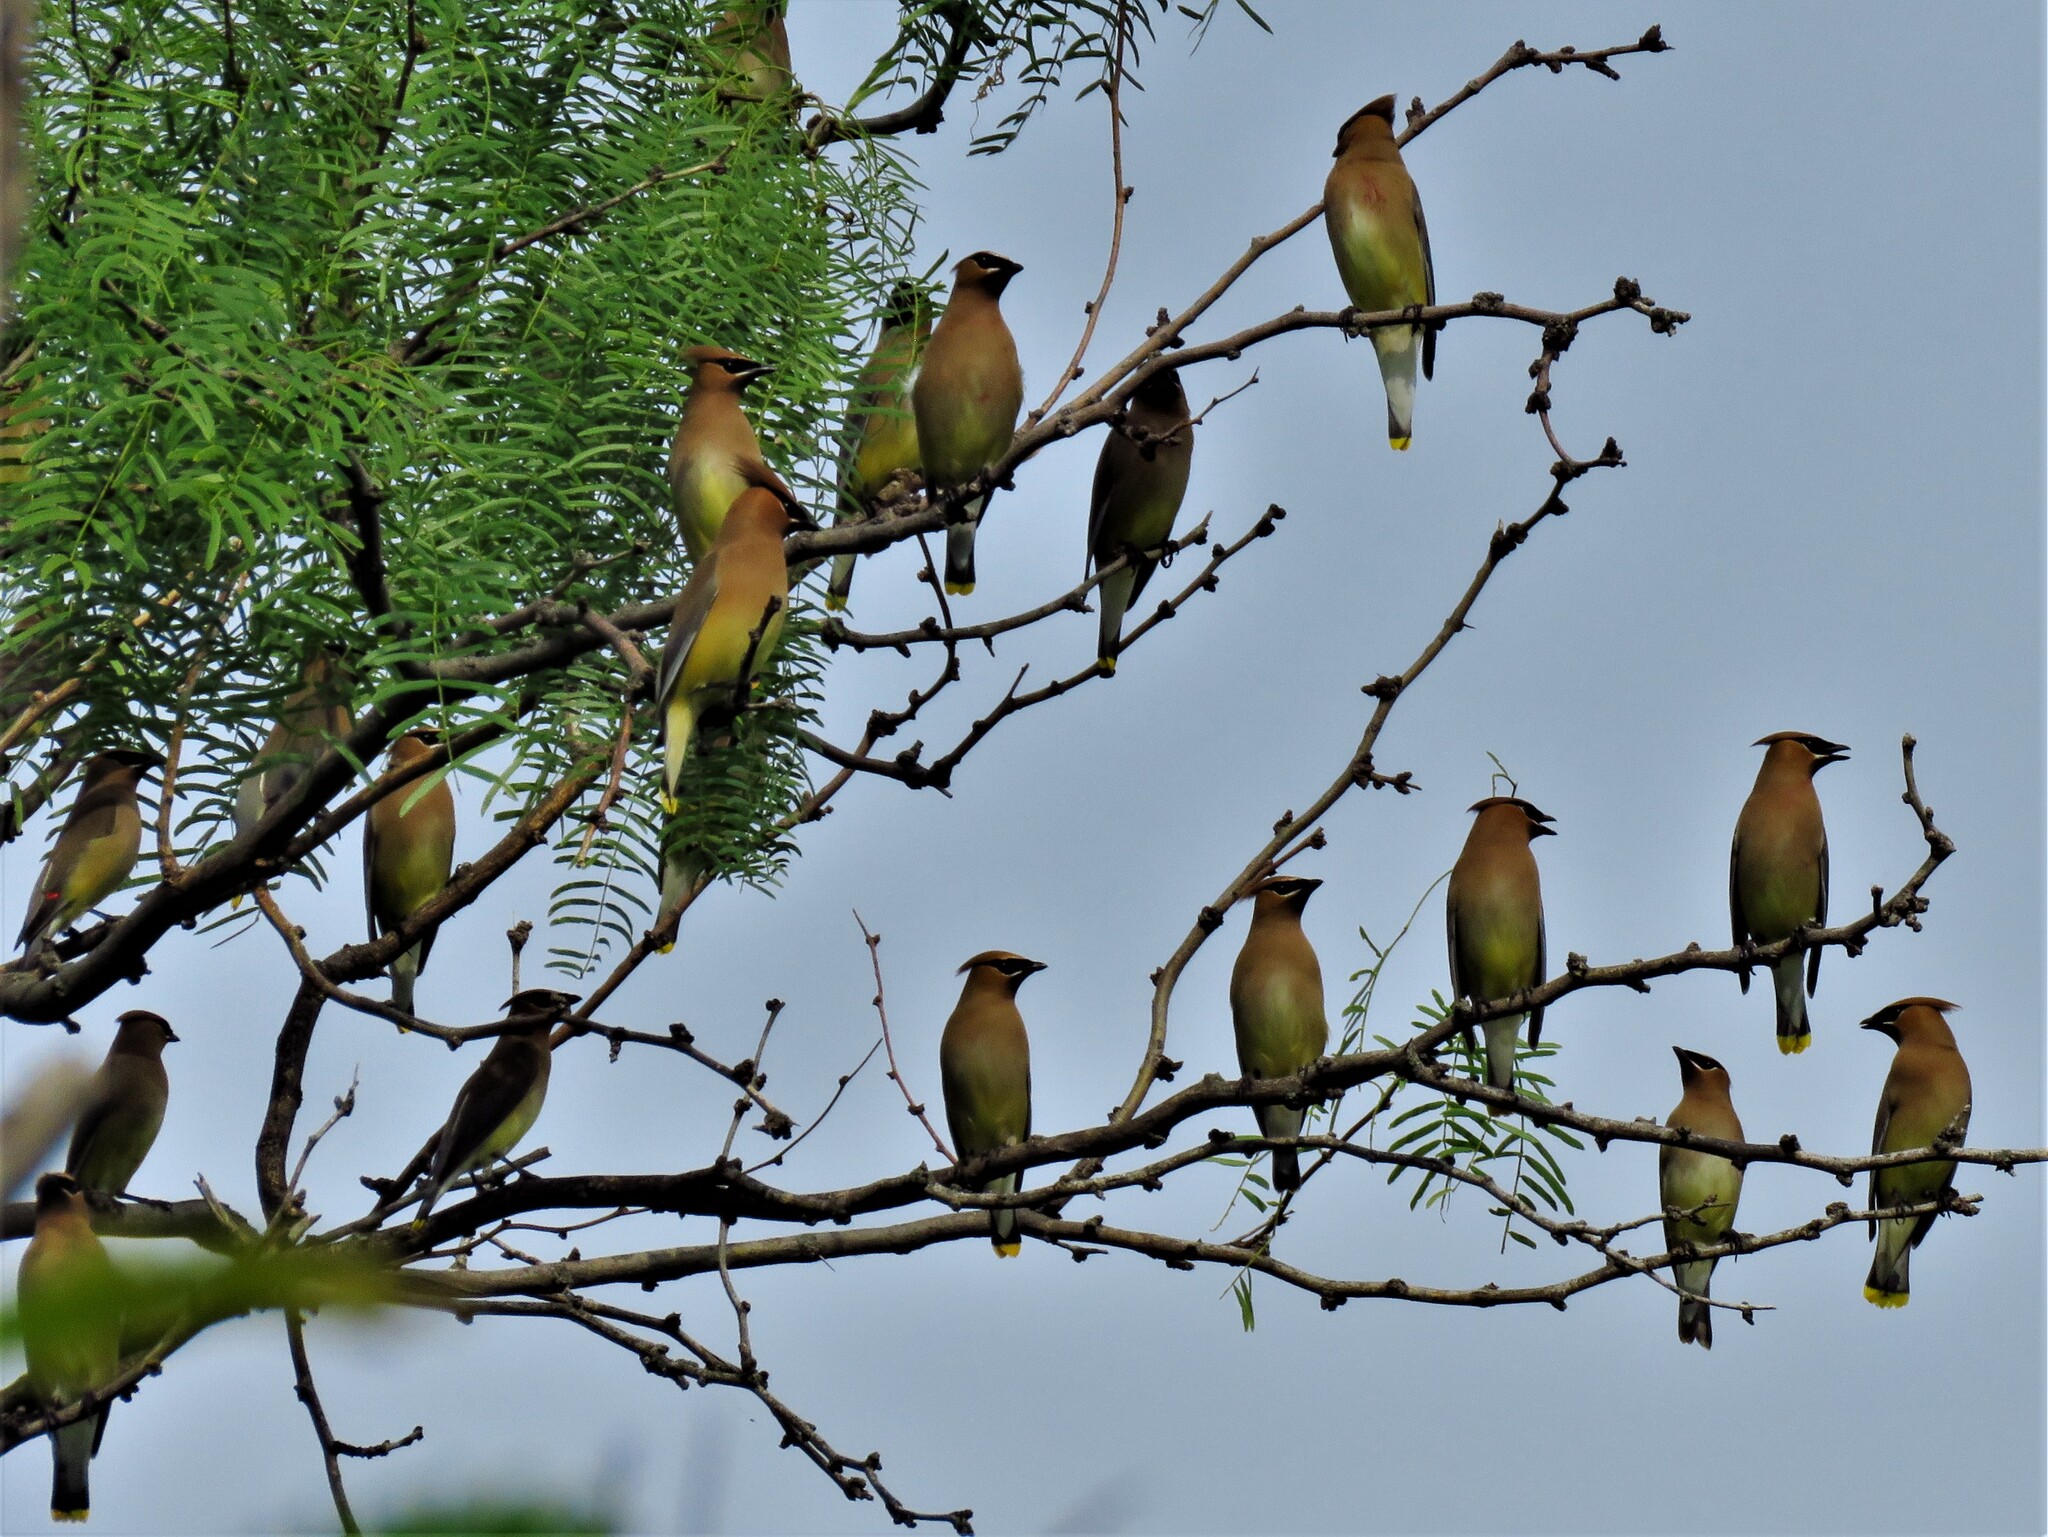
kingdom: Animalia
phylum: Chordata
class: Aves
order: Passeriformes
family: Bombycillidae
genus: Bombycilla
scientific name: Bombycilla cedrorum
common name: Cedar waxwing
